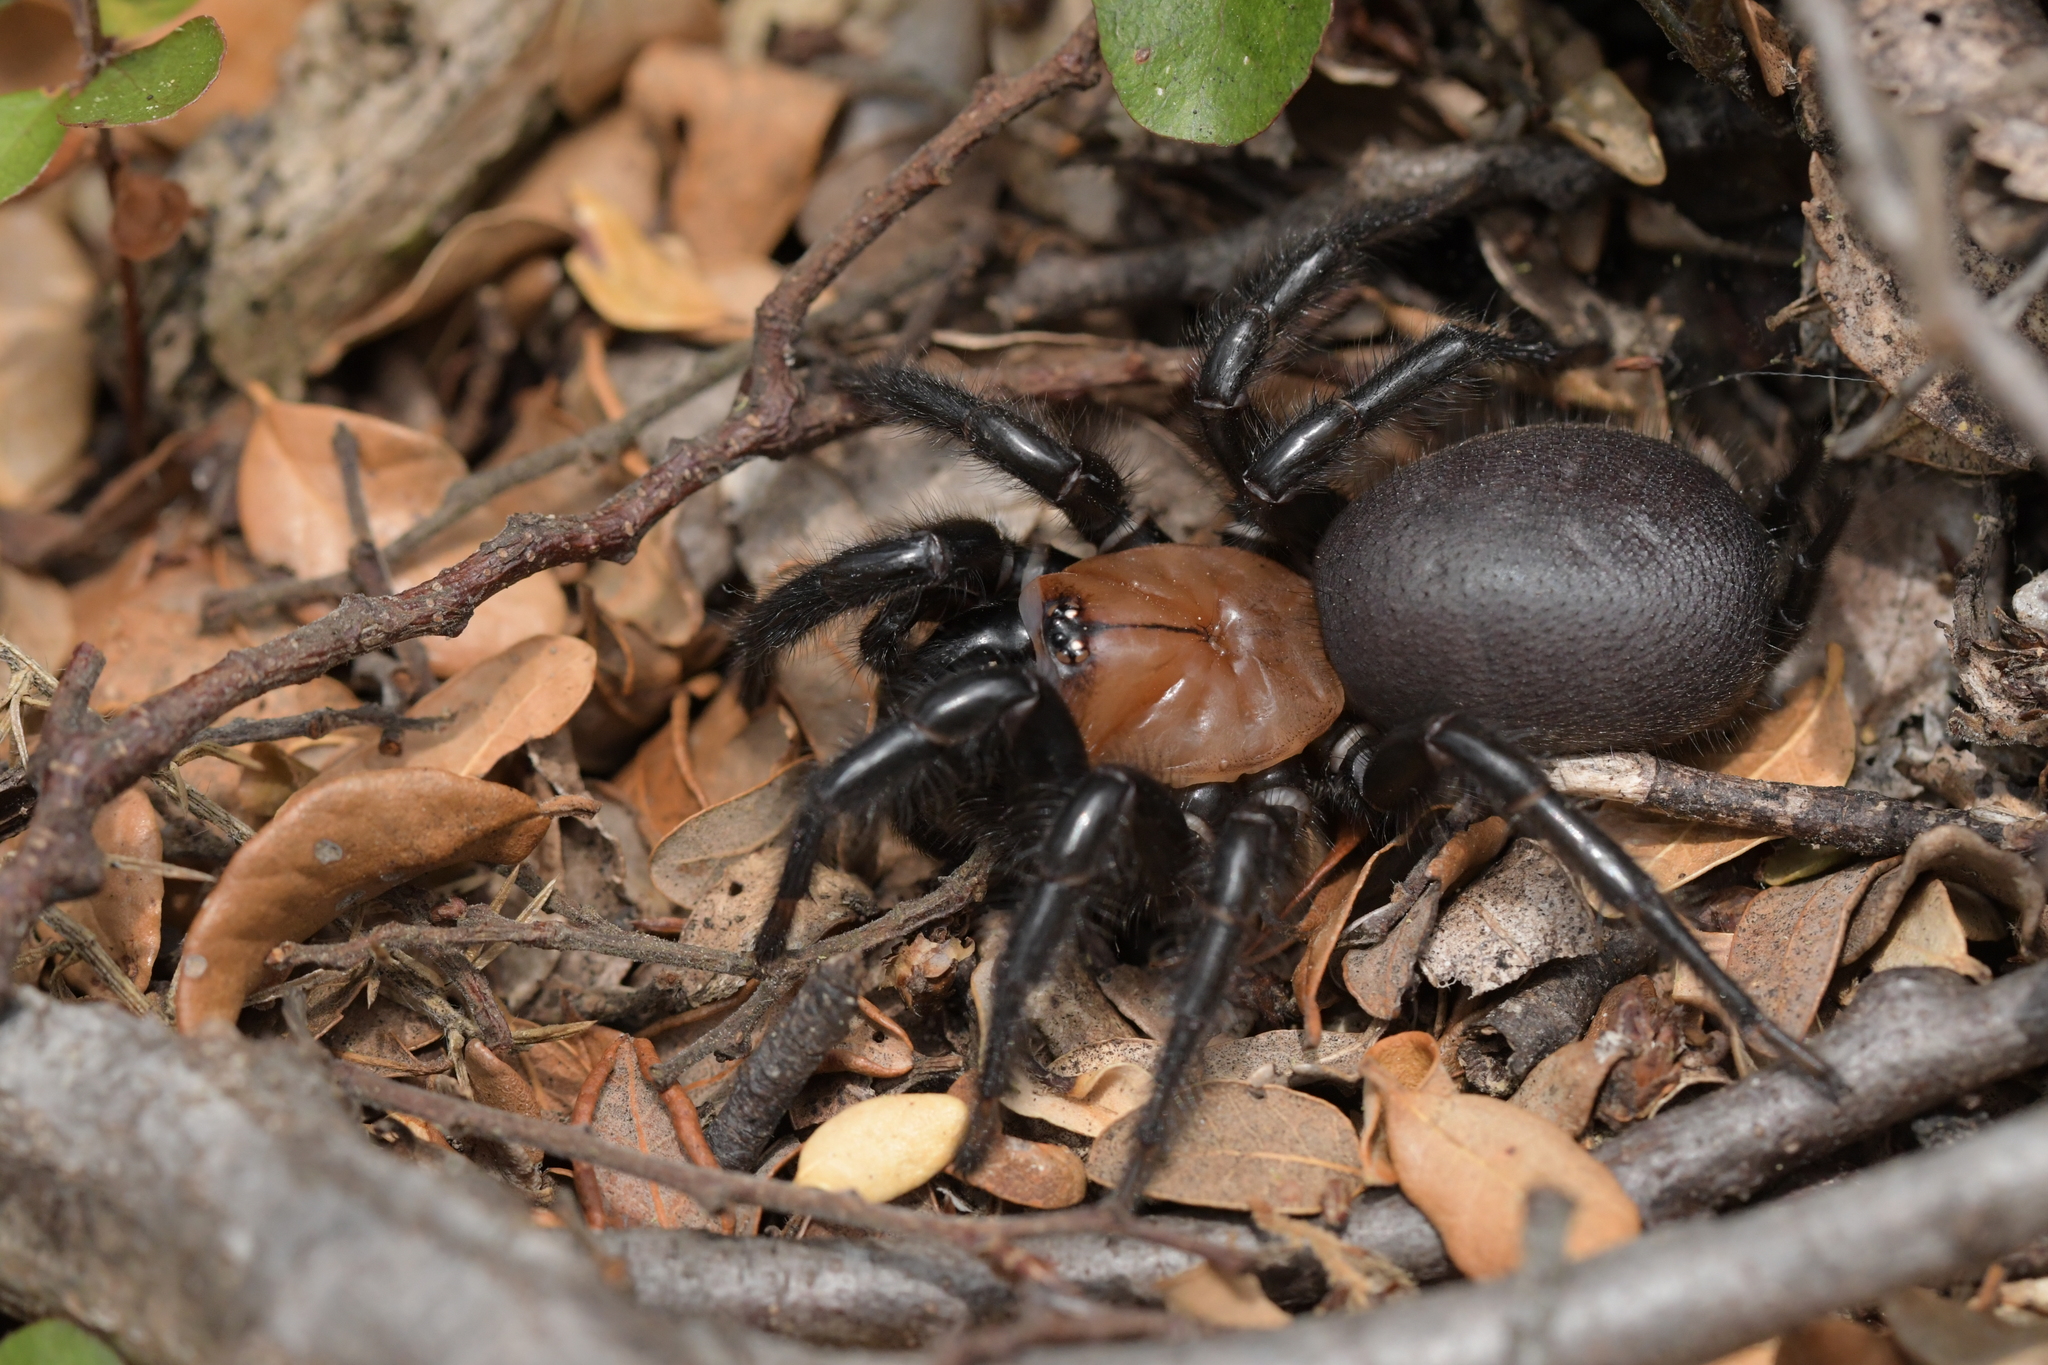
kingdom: Animalia
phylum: Arthropoda
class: Arachnida
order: Araneae
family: Porrhothelidae
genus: Porrhothele
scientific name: Porrhothele antipodiana
